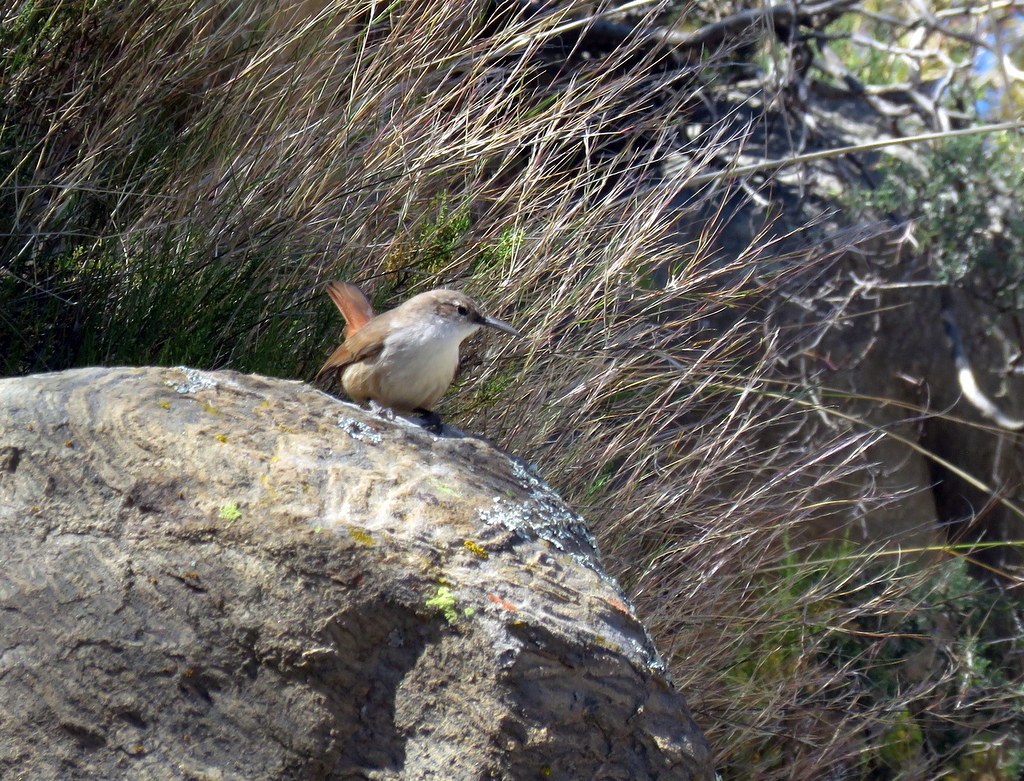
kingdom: Animalia
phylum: Chordata
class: Aves
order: Passeriformes
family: Furnariidae
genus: Upucerthia
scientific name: Upucerthia ruficaudus
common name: Straight-billed earthcreeper
